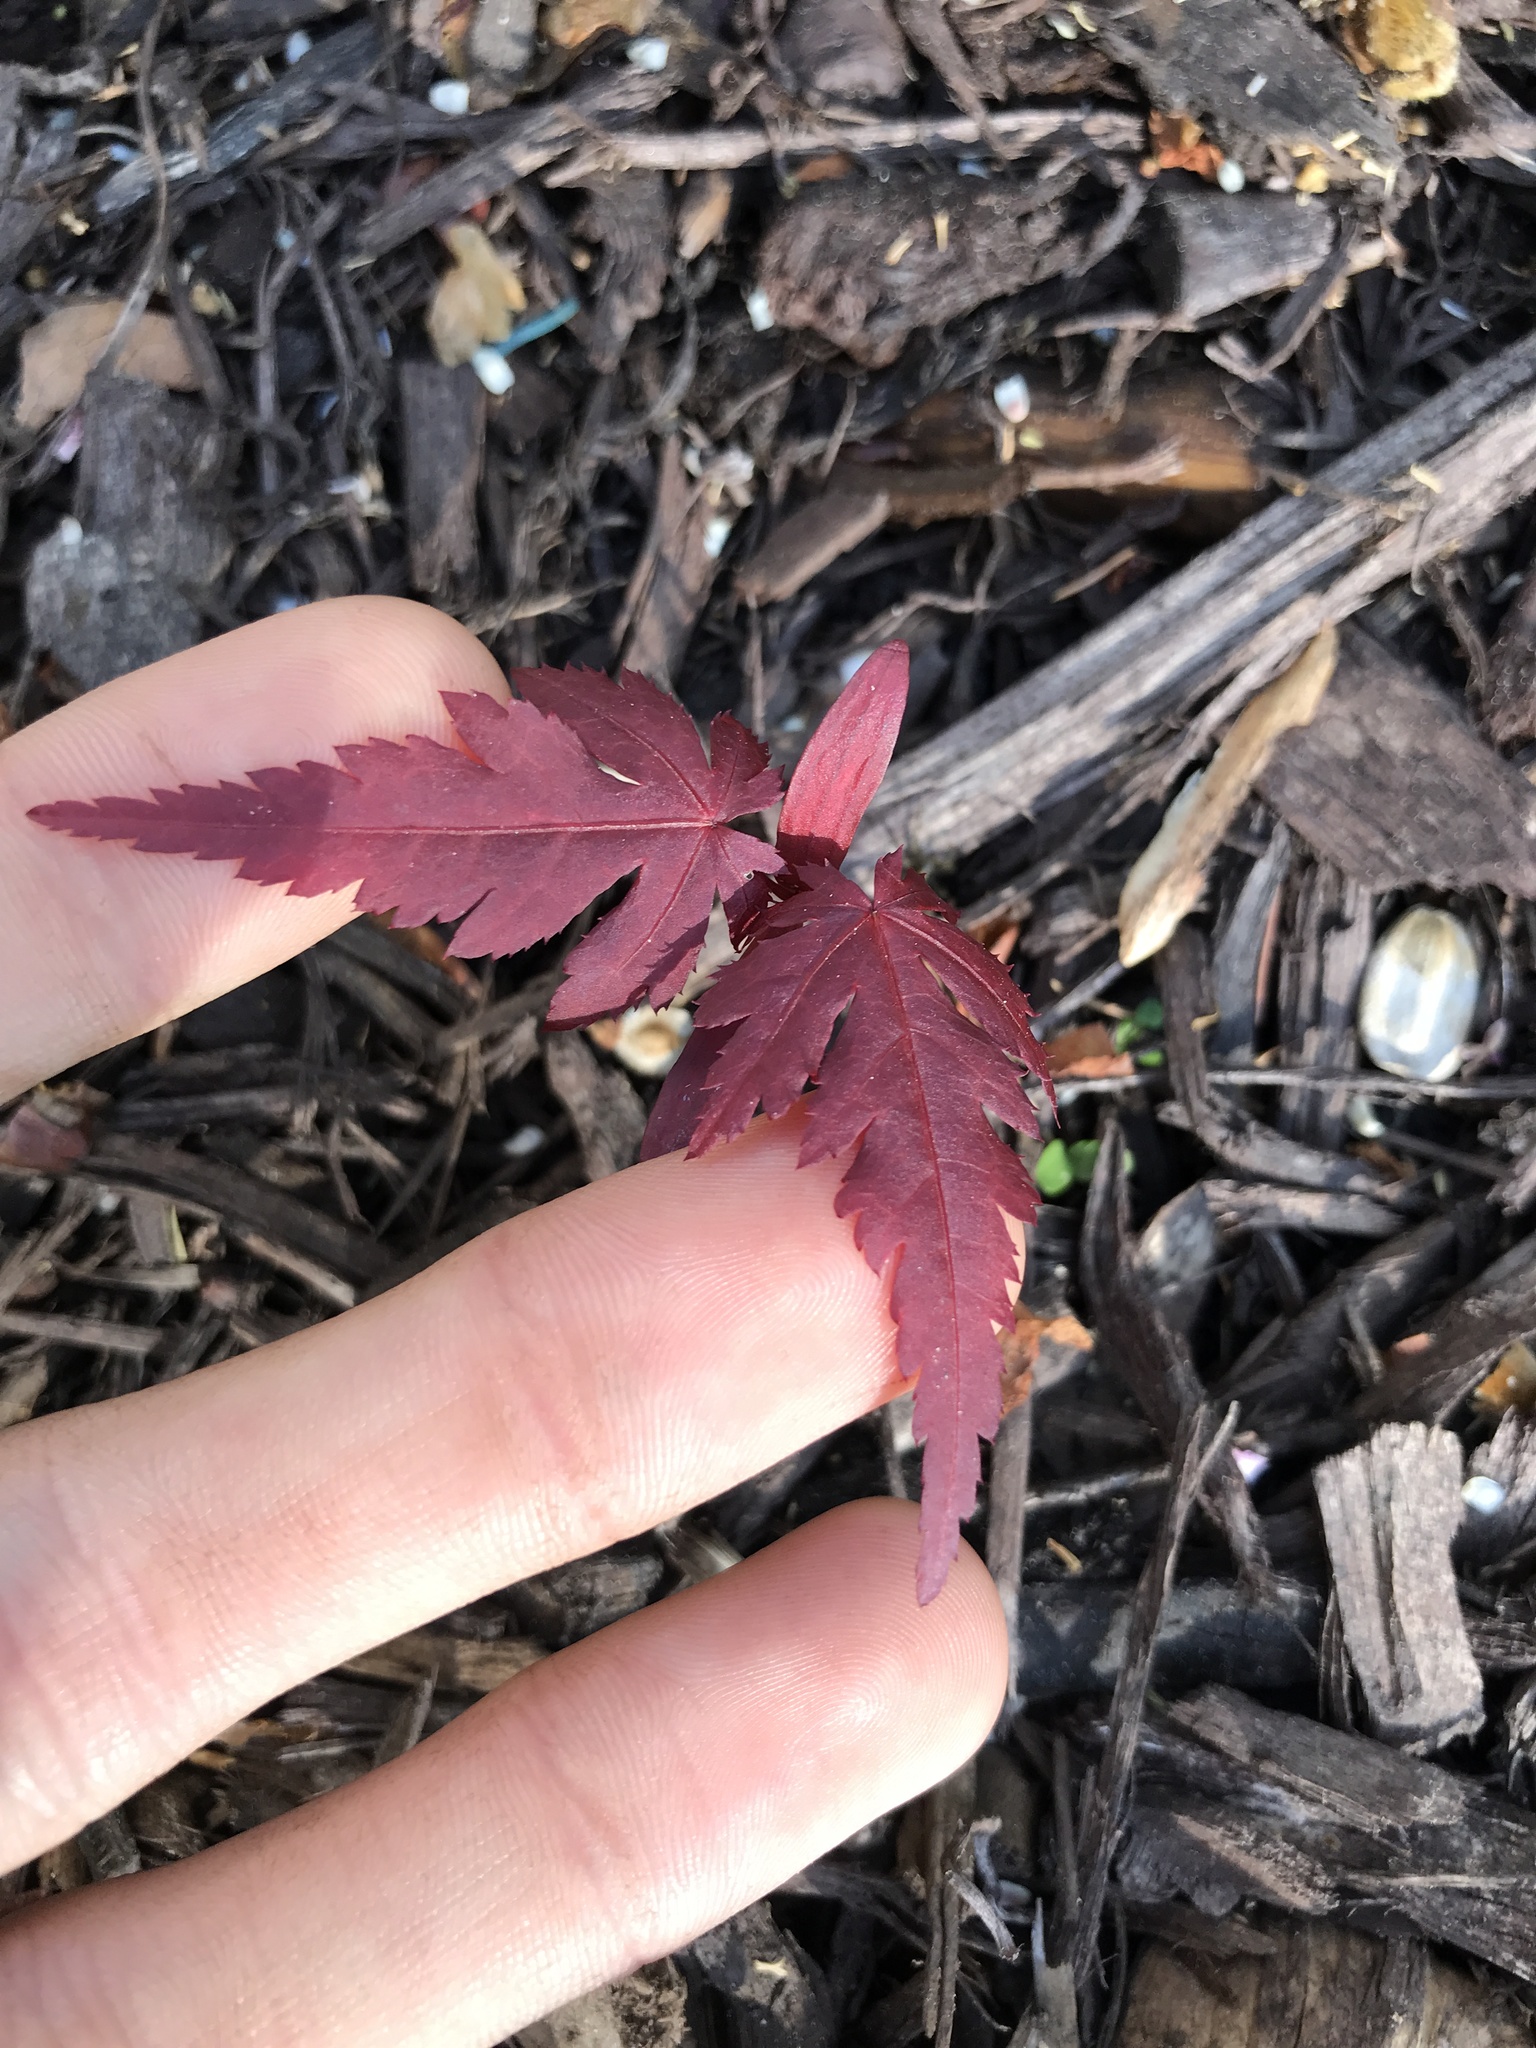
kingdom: Plantae
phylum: Tracheophyta
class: Magnoliopsida
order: Sapindales
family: Sapindaceae
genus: Acer
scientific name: Acer palmatum
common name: Japanese maple
